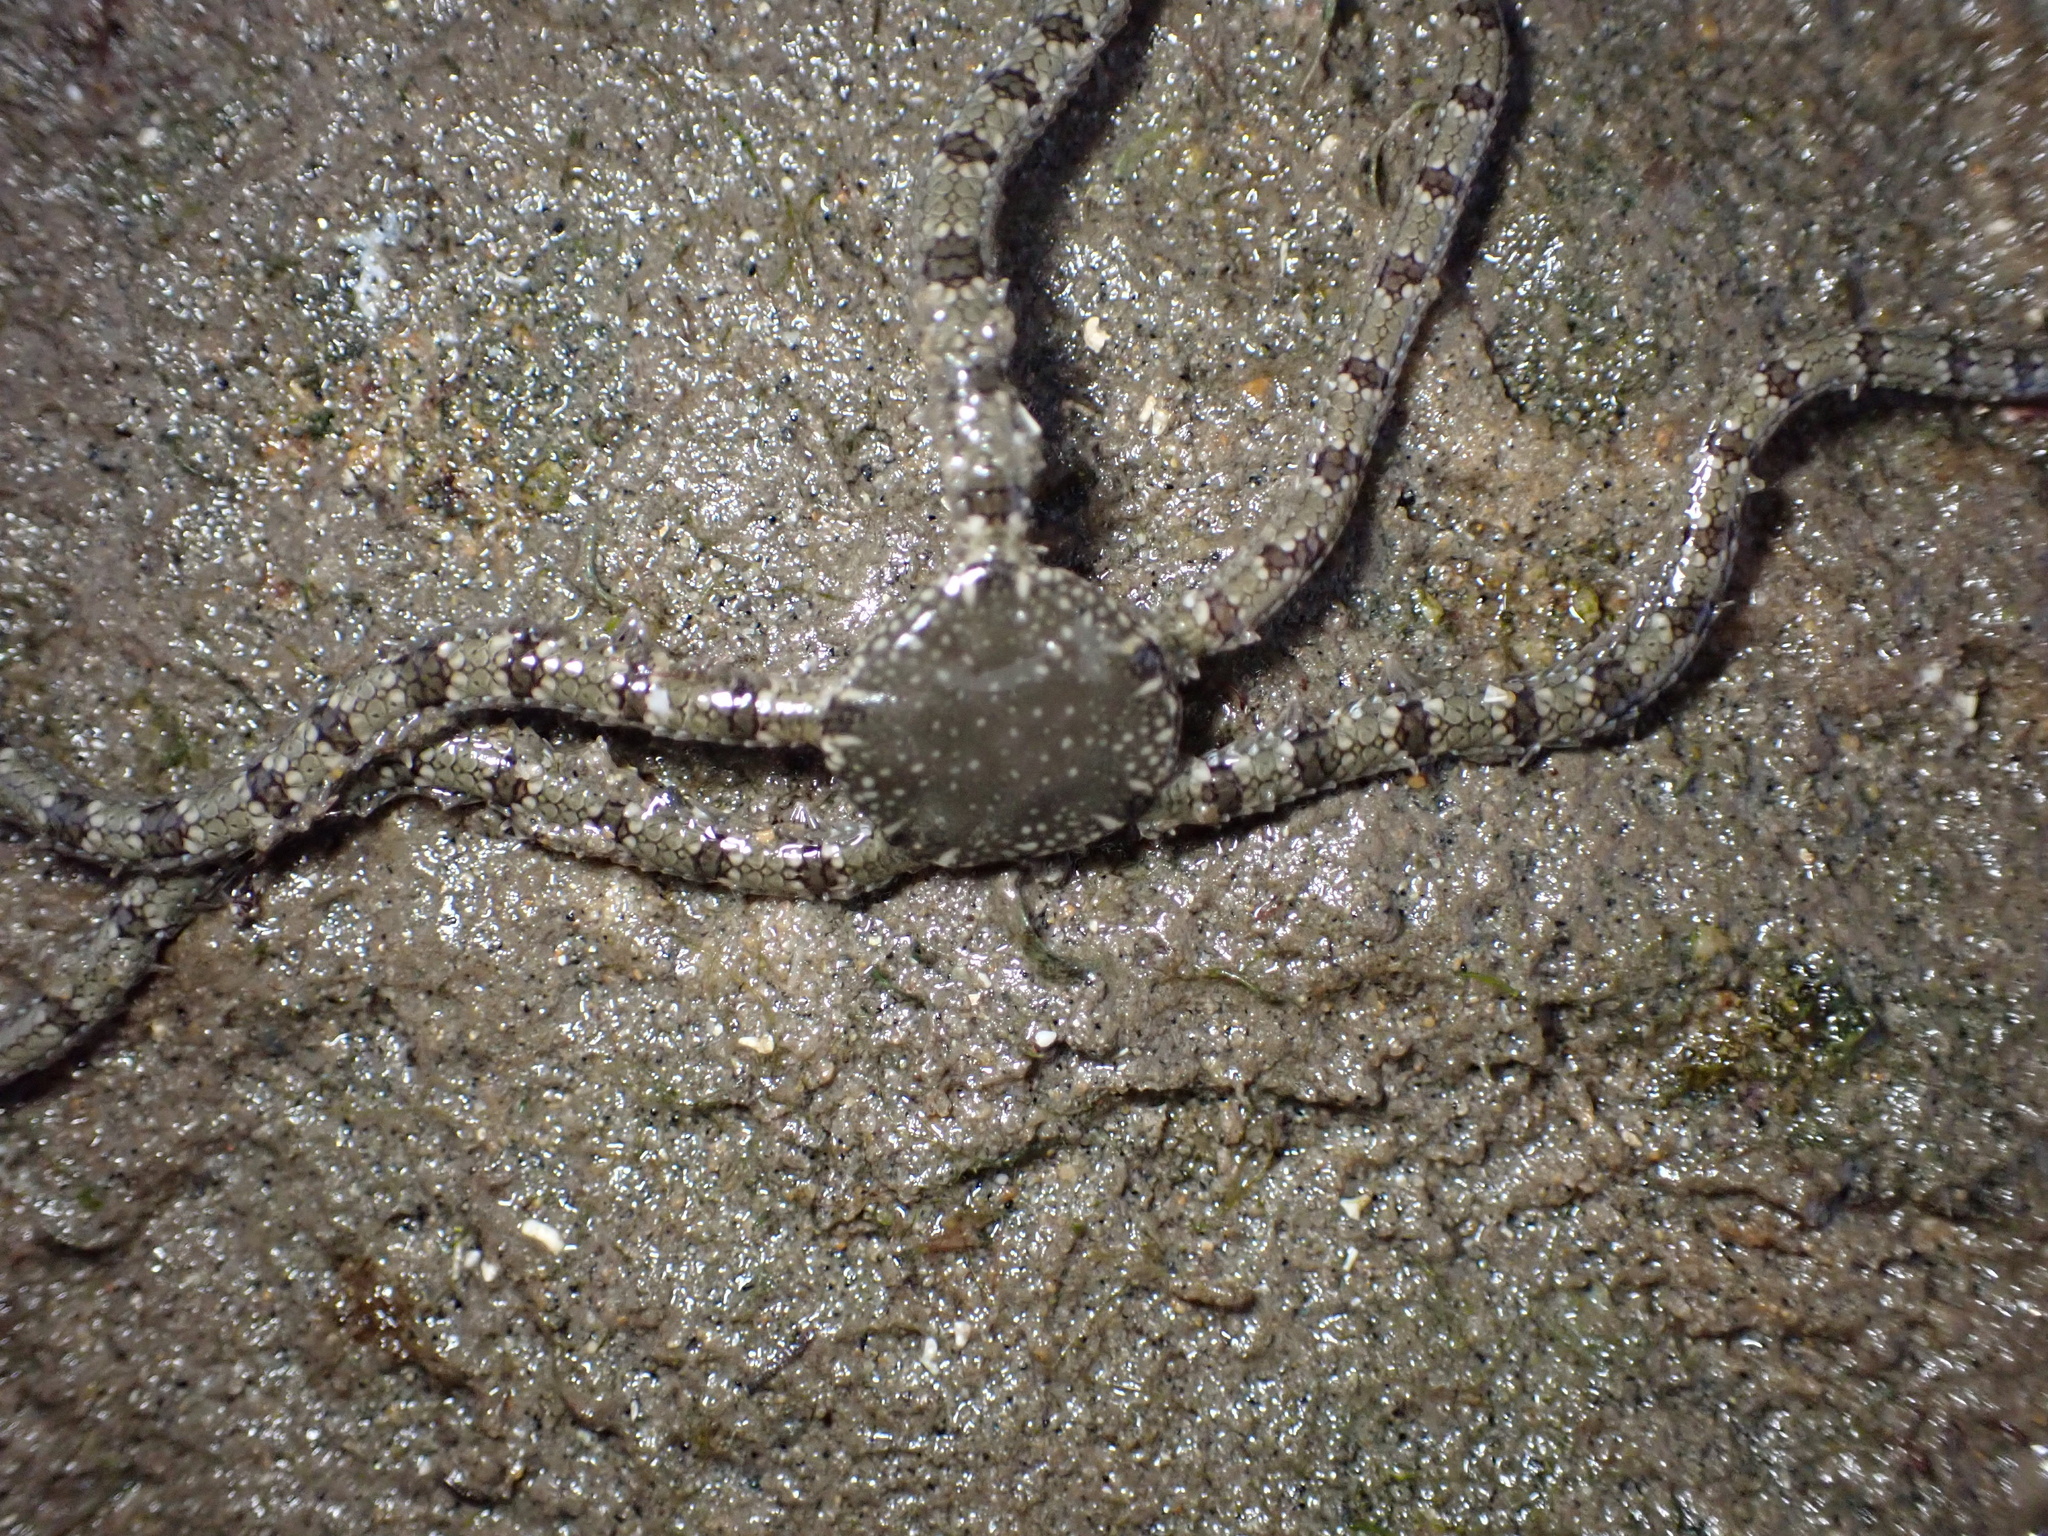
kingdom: Animalia
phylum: Echinodermata
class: Ophiuroidea
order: Amphilepidida
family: Ophionereididae
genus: Ophionereis
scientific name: Ophionereis annulata
